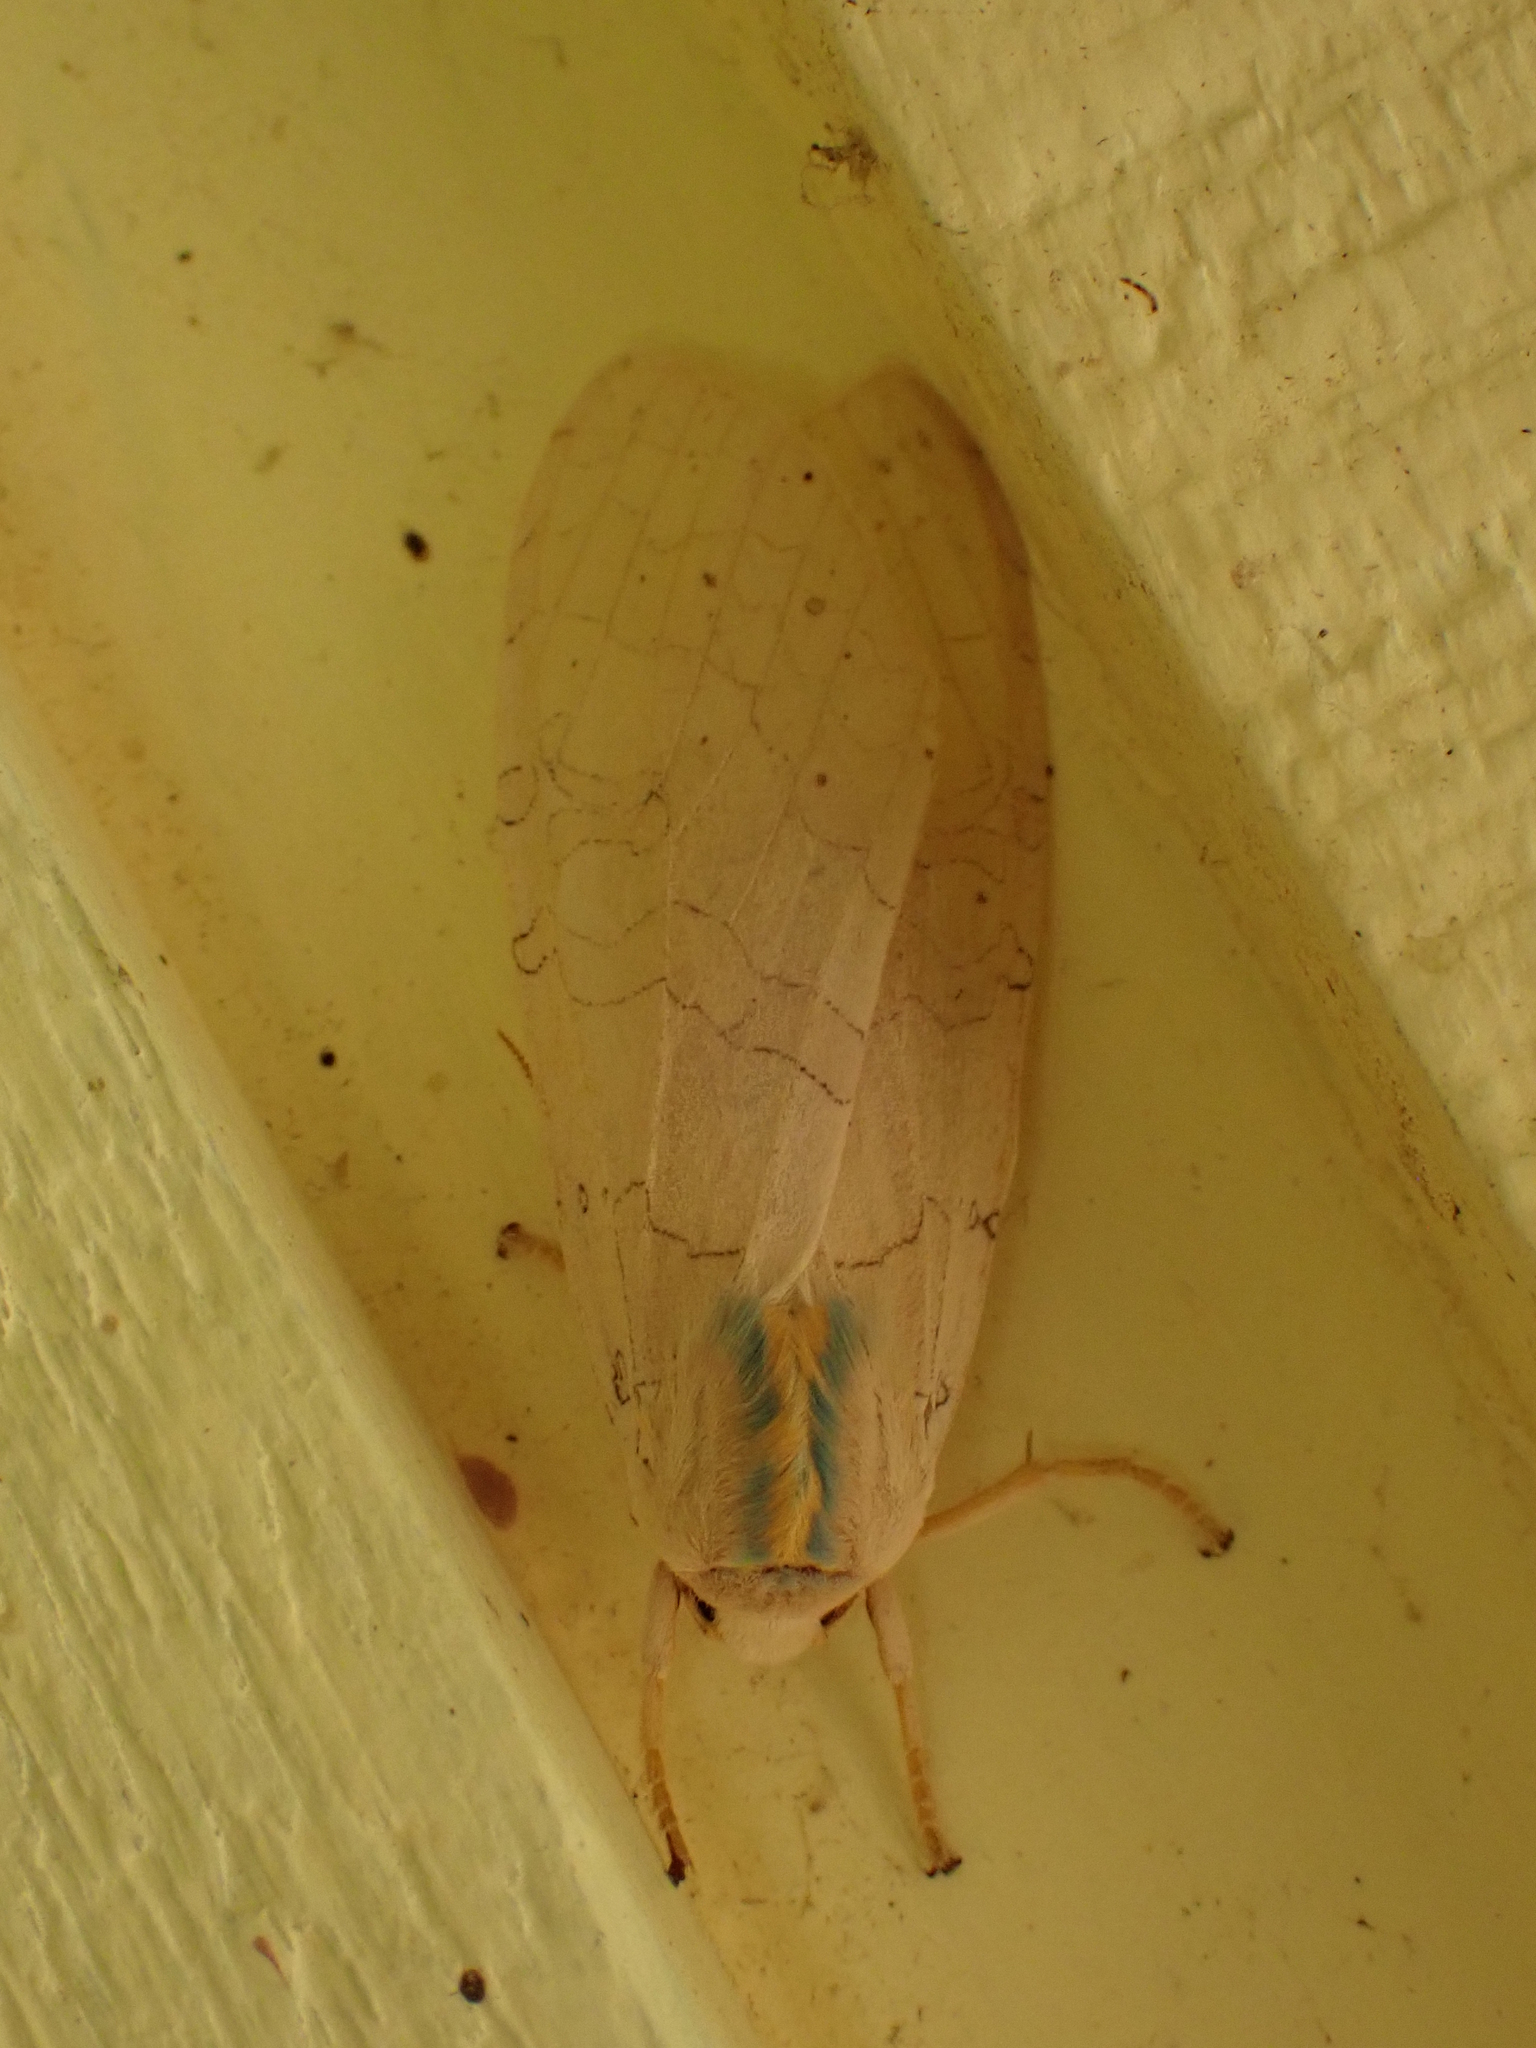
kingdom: Animalia
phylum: Arthropoda
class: Insecta
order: Lepidoptera
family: Erebidae
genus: Halysidota
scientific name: Halysidota tessellaris
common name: Banded tussock moth
